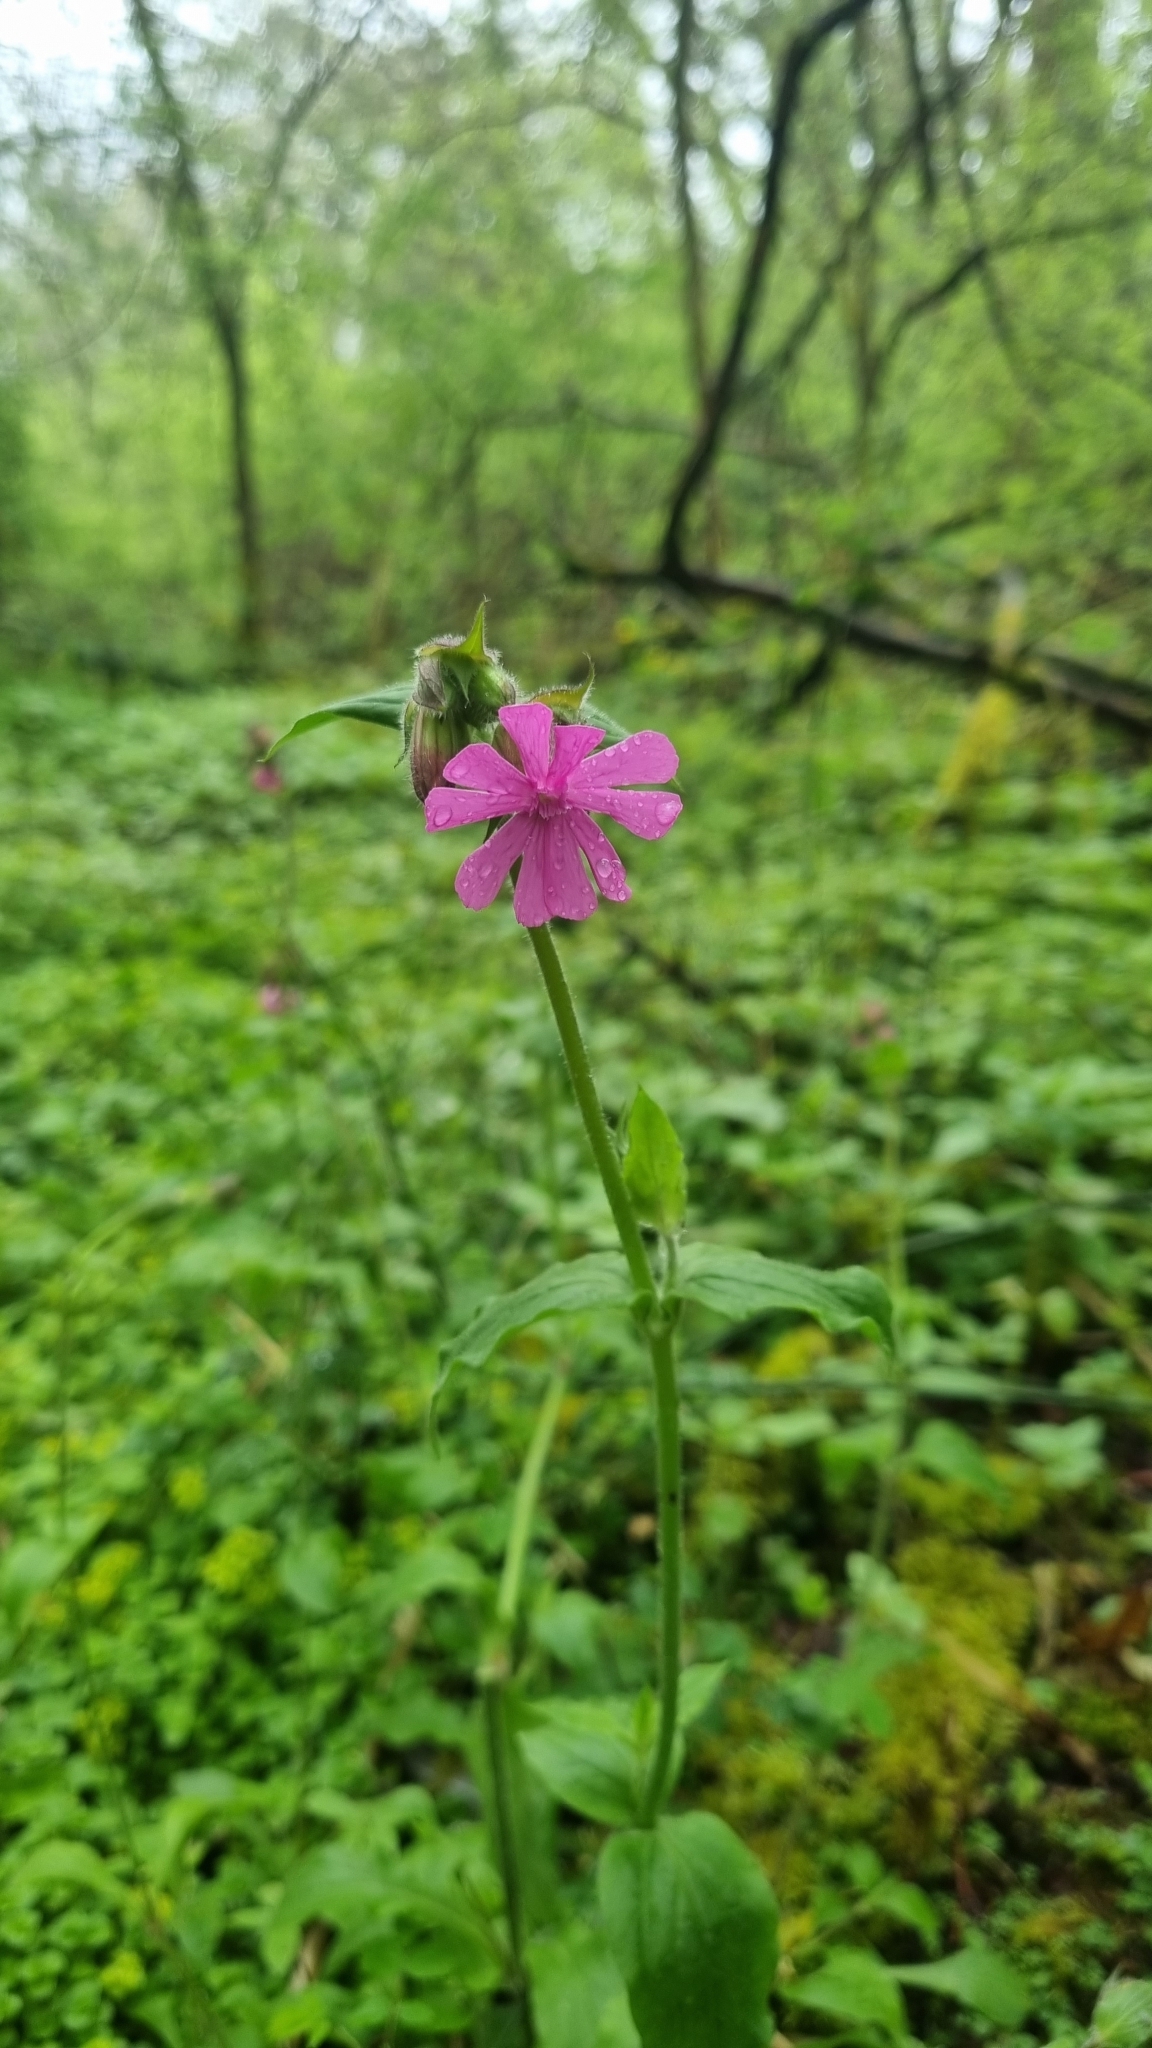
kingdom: Plantae
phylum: Tracheophyta
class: Magnoliopsida
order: Caryophyllales
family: Caryophyllaceae
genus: Silene
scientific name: Silene dioica
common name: Red campion
